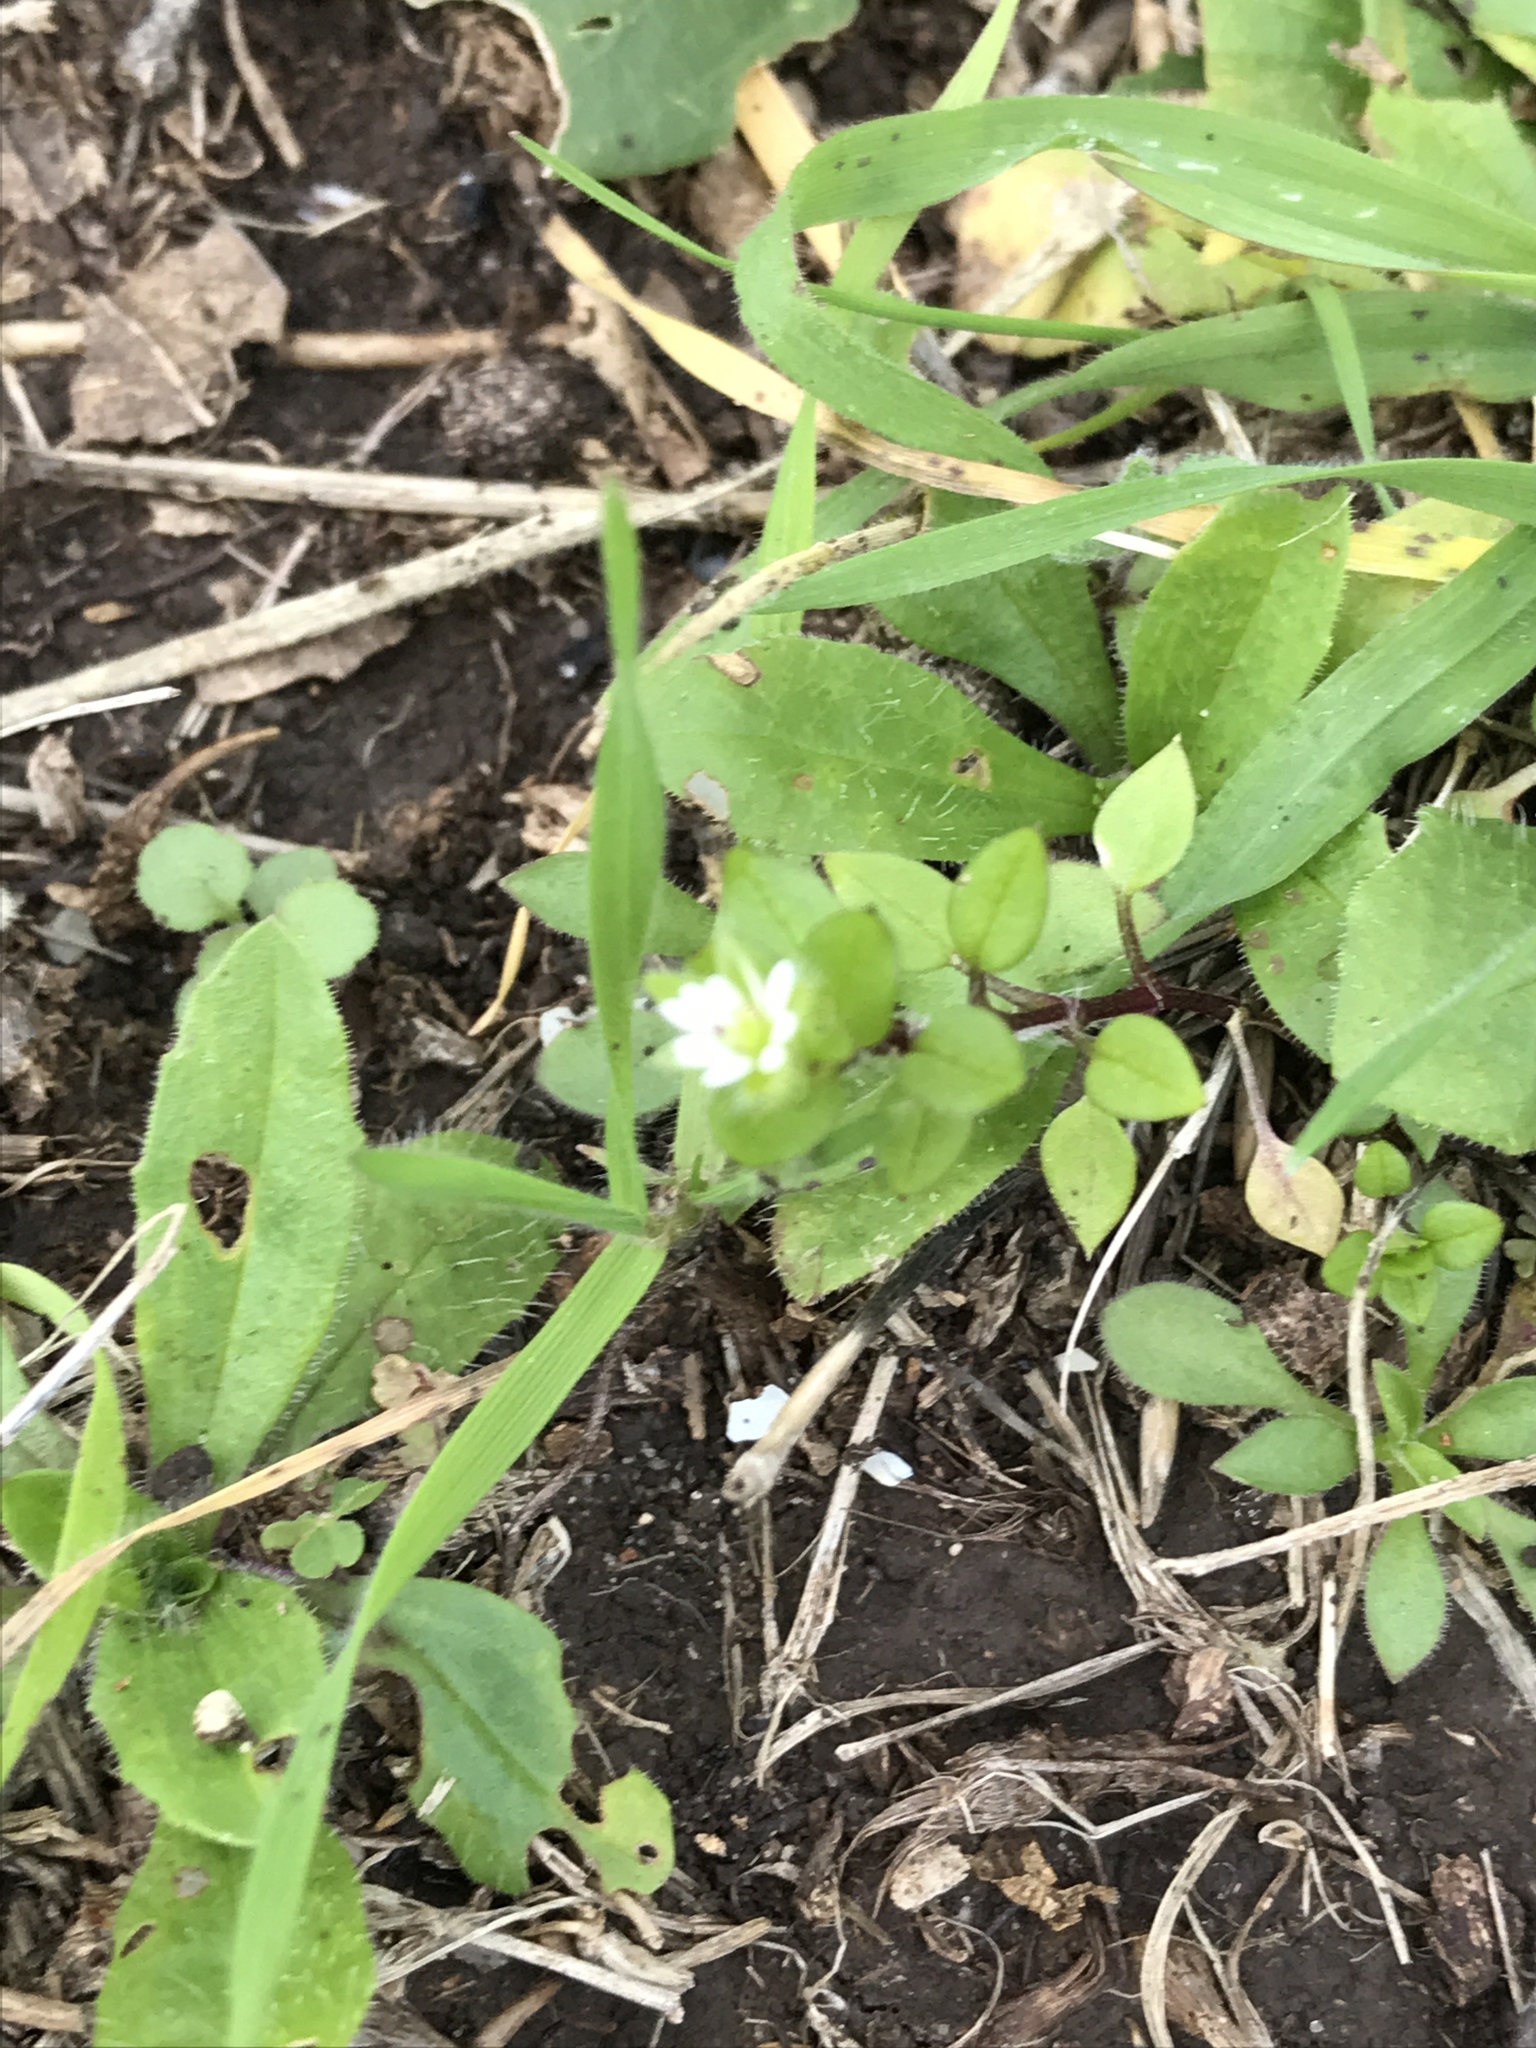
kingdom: Plantae
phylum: Tracheophyta
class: Magnoliopsida
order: Caryophyllales
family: Caryophyllaceae
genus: Stellaria
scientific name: Stellaria media
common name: Common chickweed
